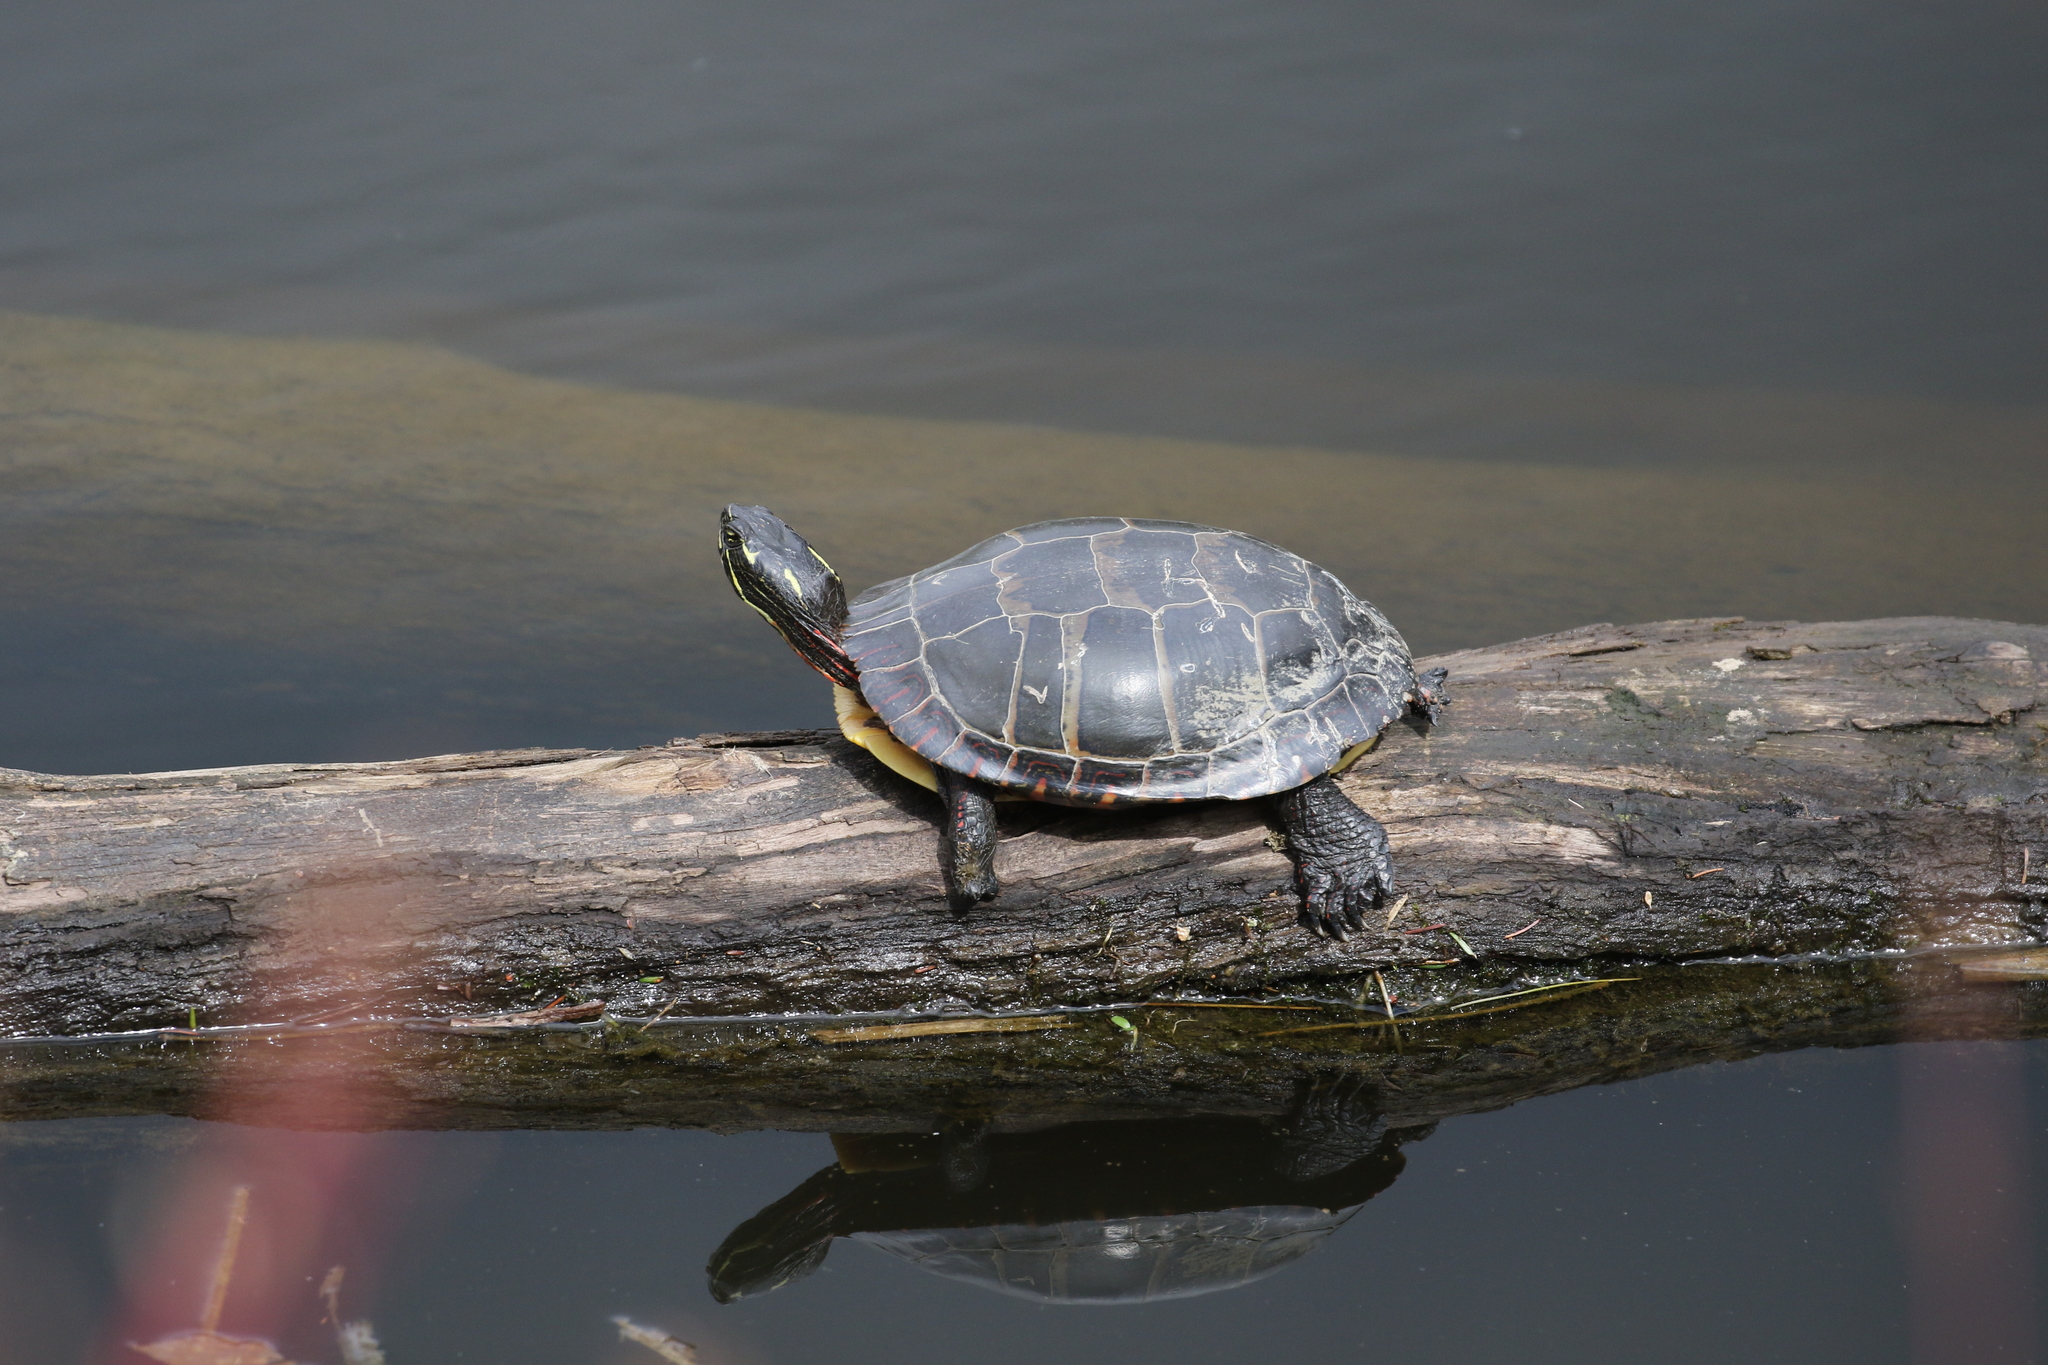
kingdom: Animalia
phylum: Chordata
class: Testudines
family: Emydidae
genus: Chrysemys
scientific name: Chrysemys picta
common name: Painted turtle
